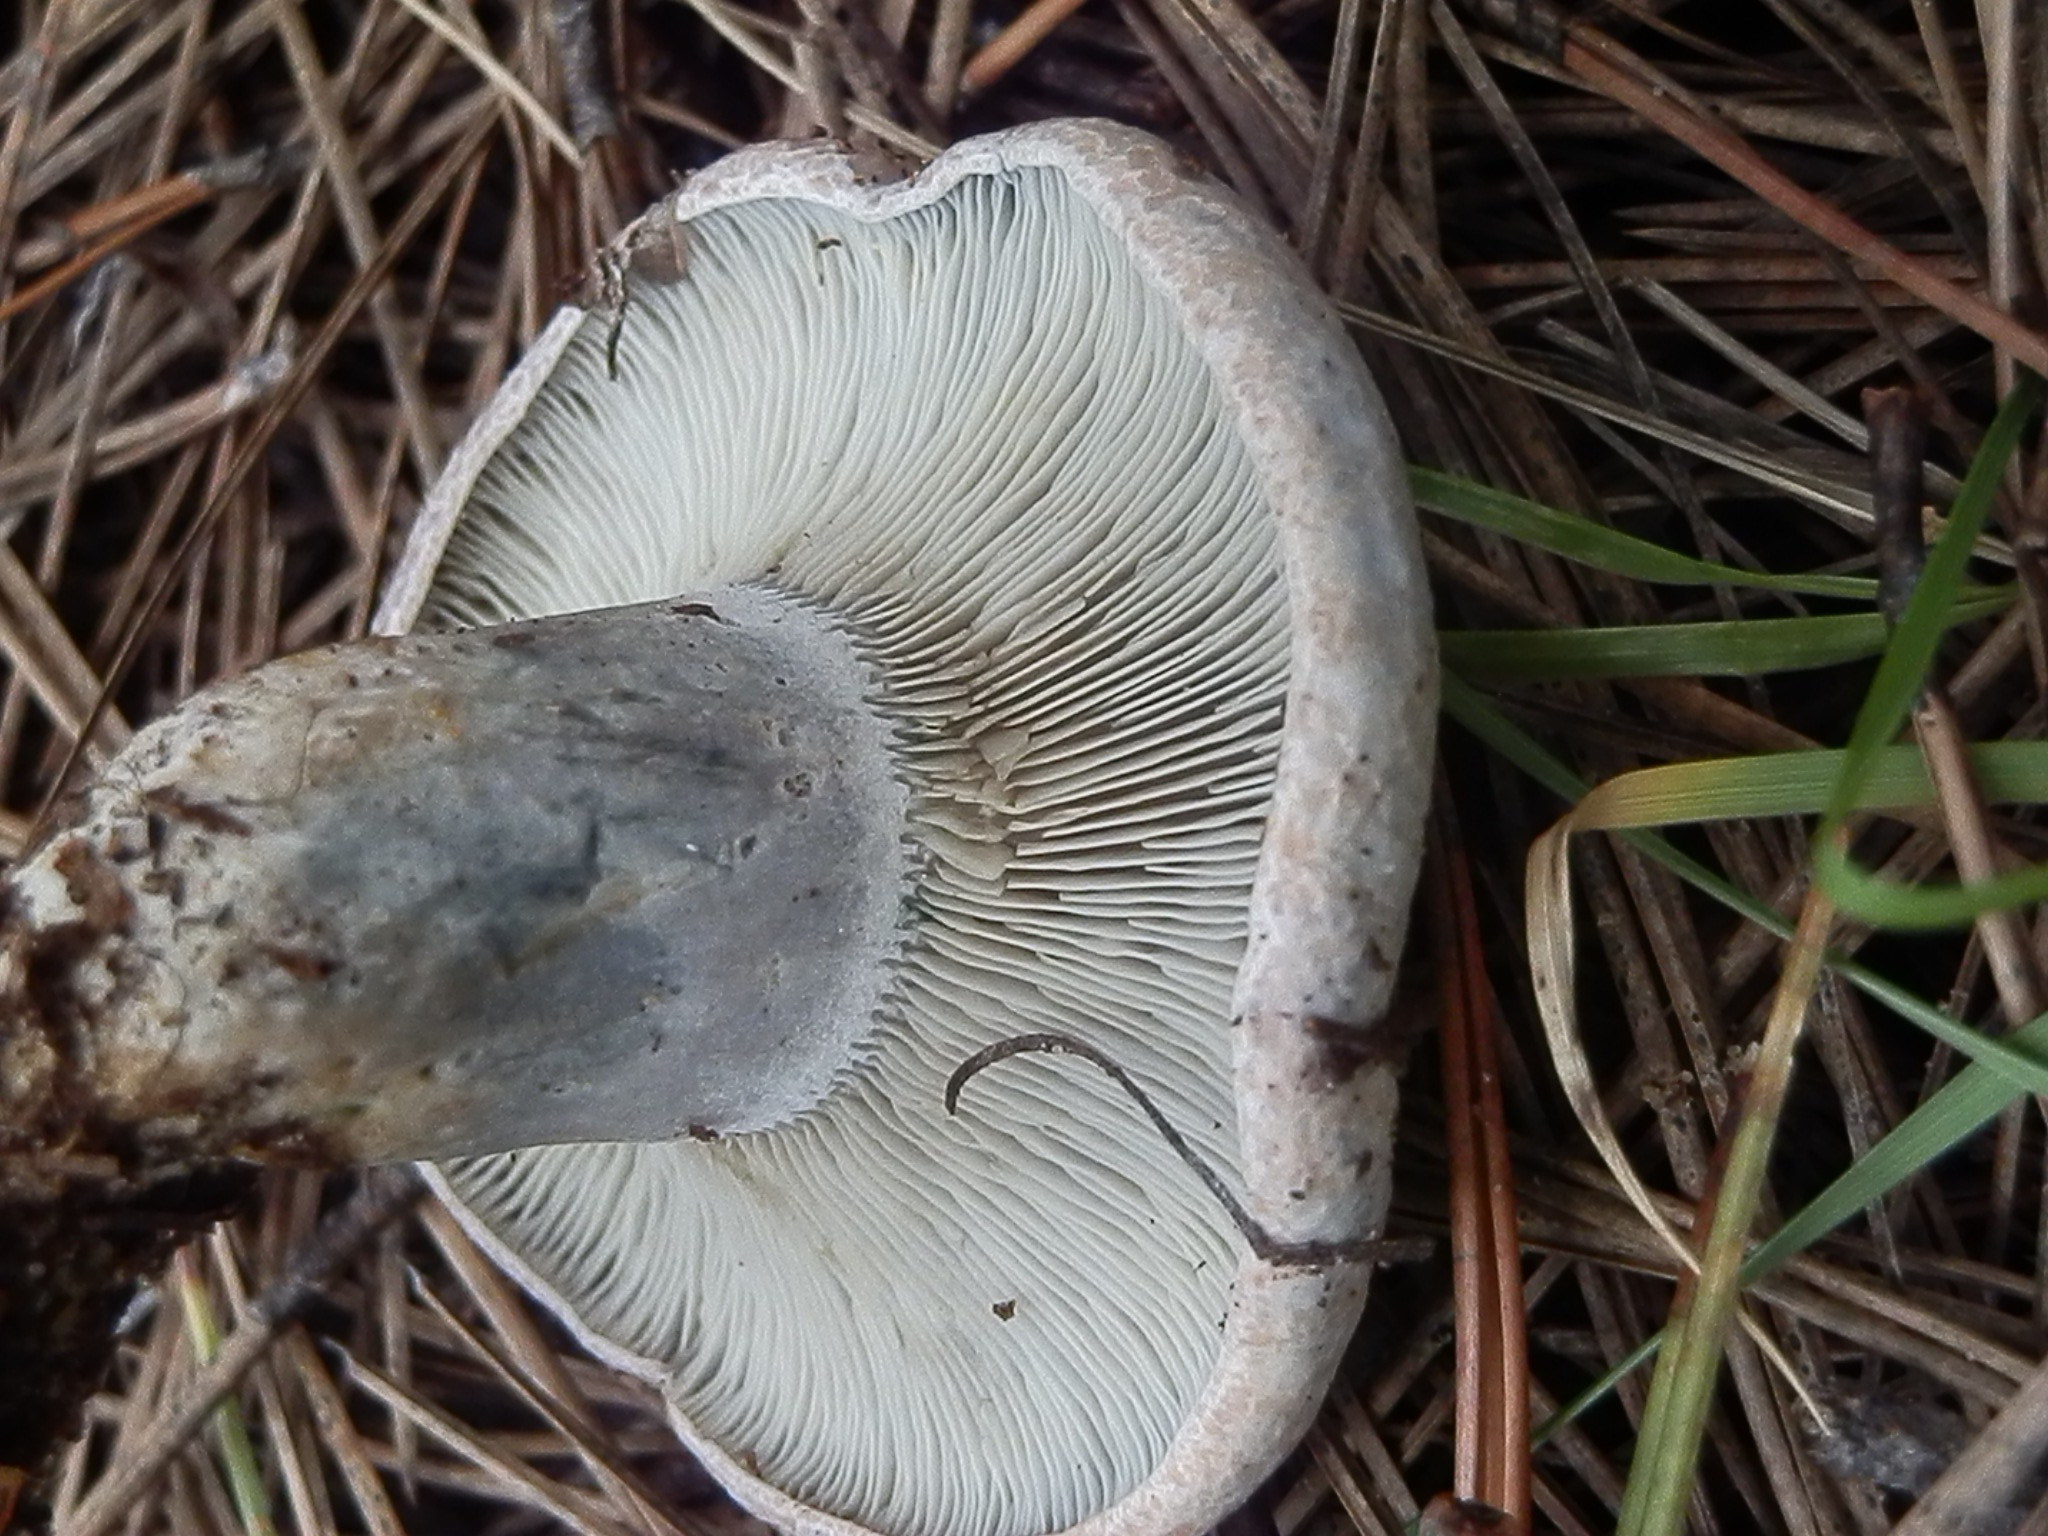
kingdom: Fungi
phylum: Basidiomycota
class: Agaricomycetes
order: Russulales
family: Russulaceae
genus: Lactarius
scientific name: Lactarius deterrimus
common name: False saffron milkcap
